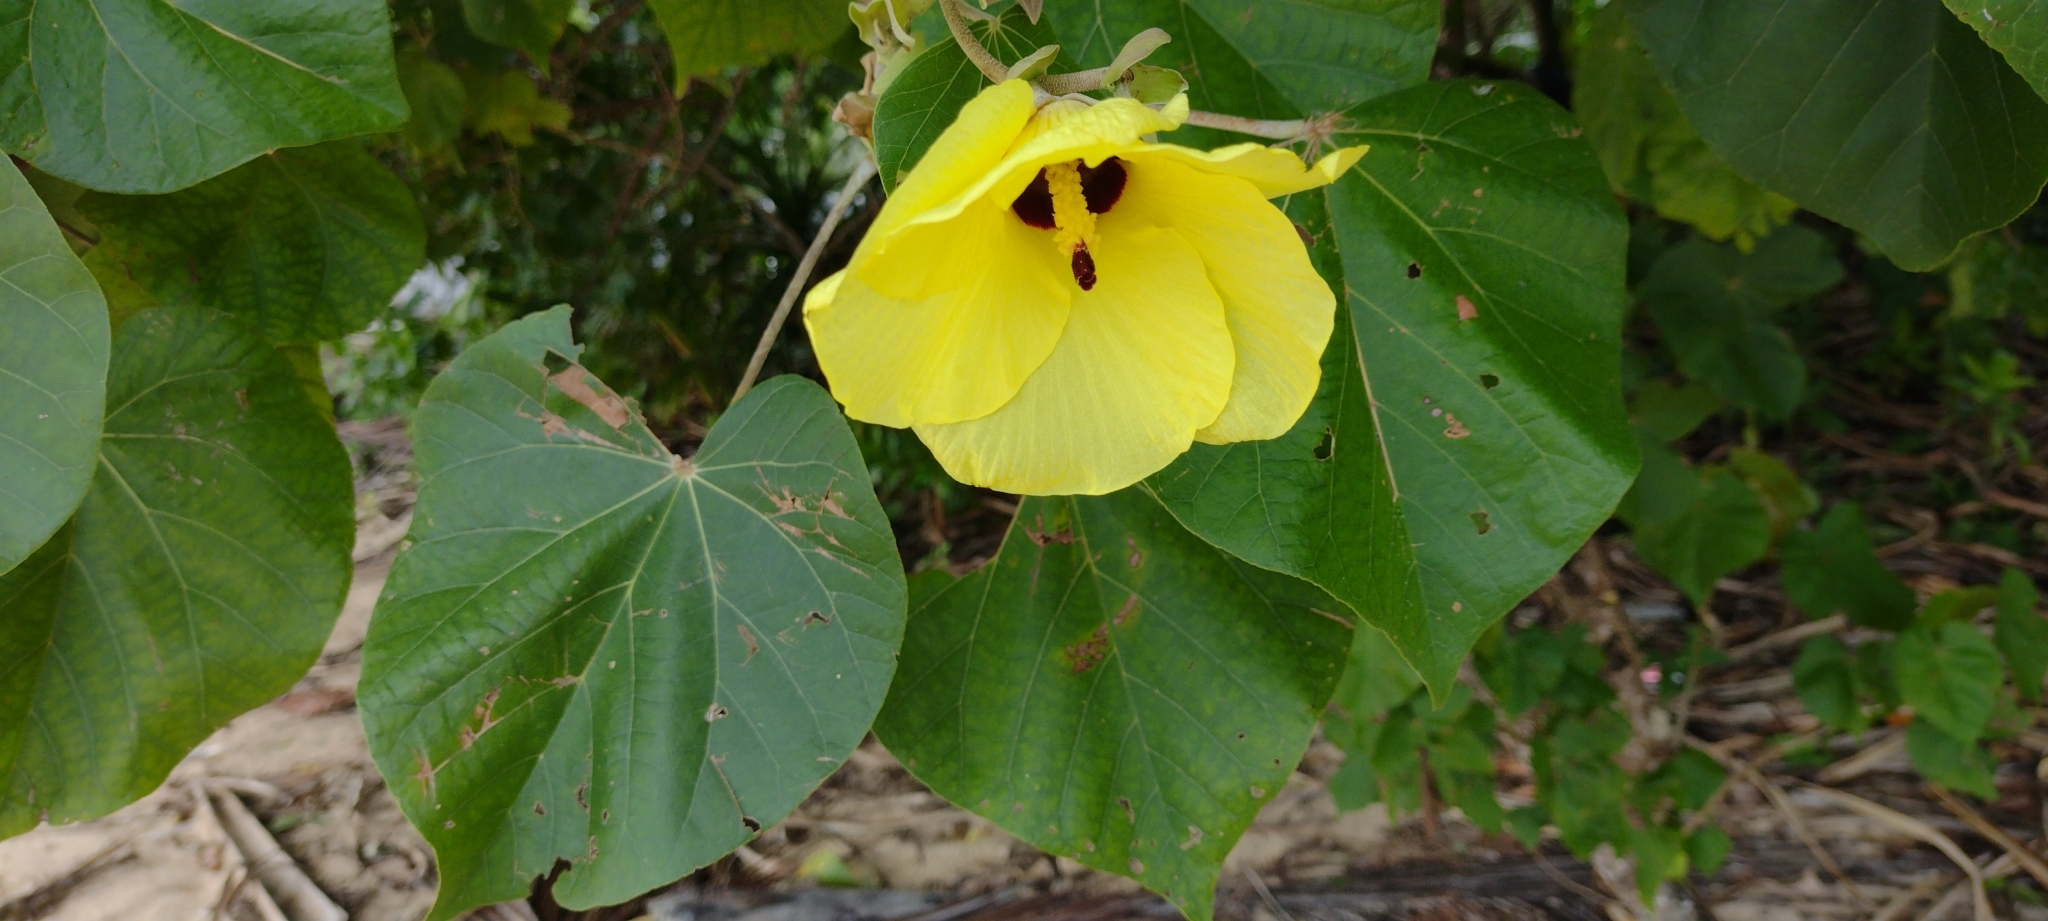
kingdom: Plantae
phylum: Tracheophyta
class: Magnoliopsida
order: Malvales
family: Malvaceae
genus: Talipariti
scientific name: Talipariti tiliaceum
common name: Sea hibiscus
